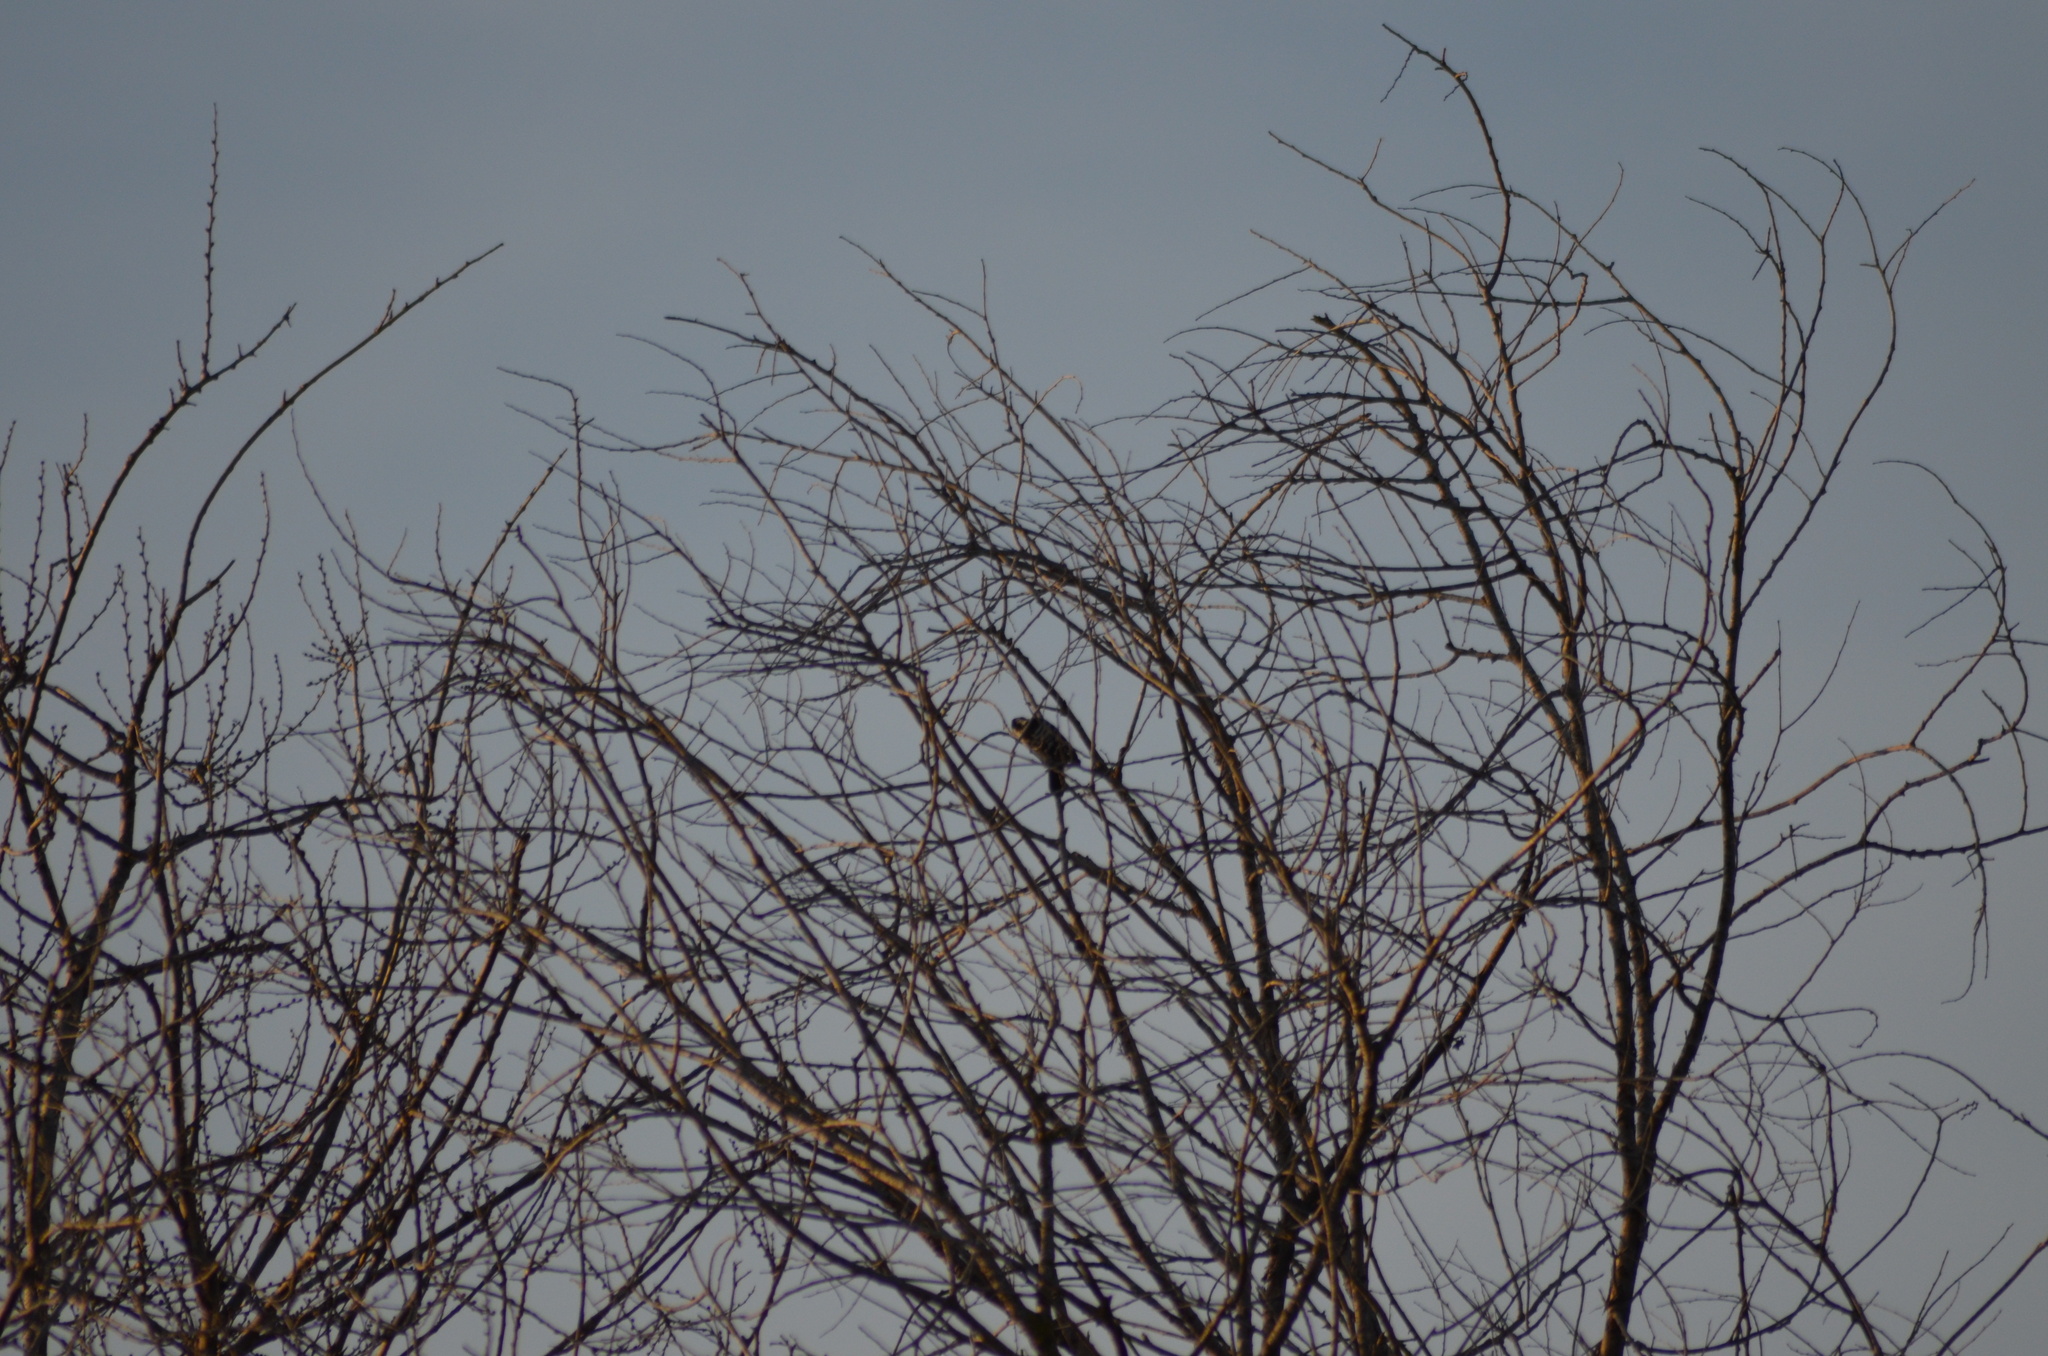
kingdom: Animalia
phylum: Chordata
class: Aves
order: Piciformes
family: Picidae
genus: Dryobates
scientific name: Dryobates minor
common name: Lesser spotted woodpecker
